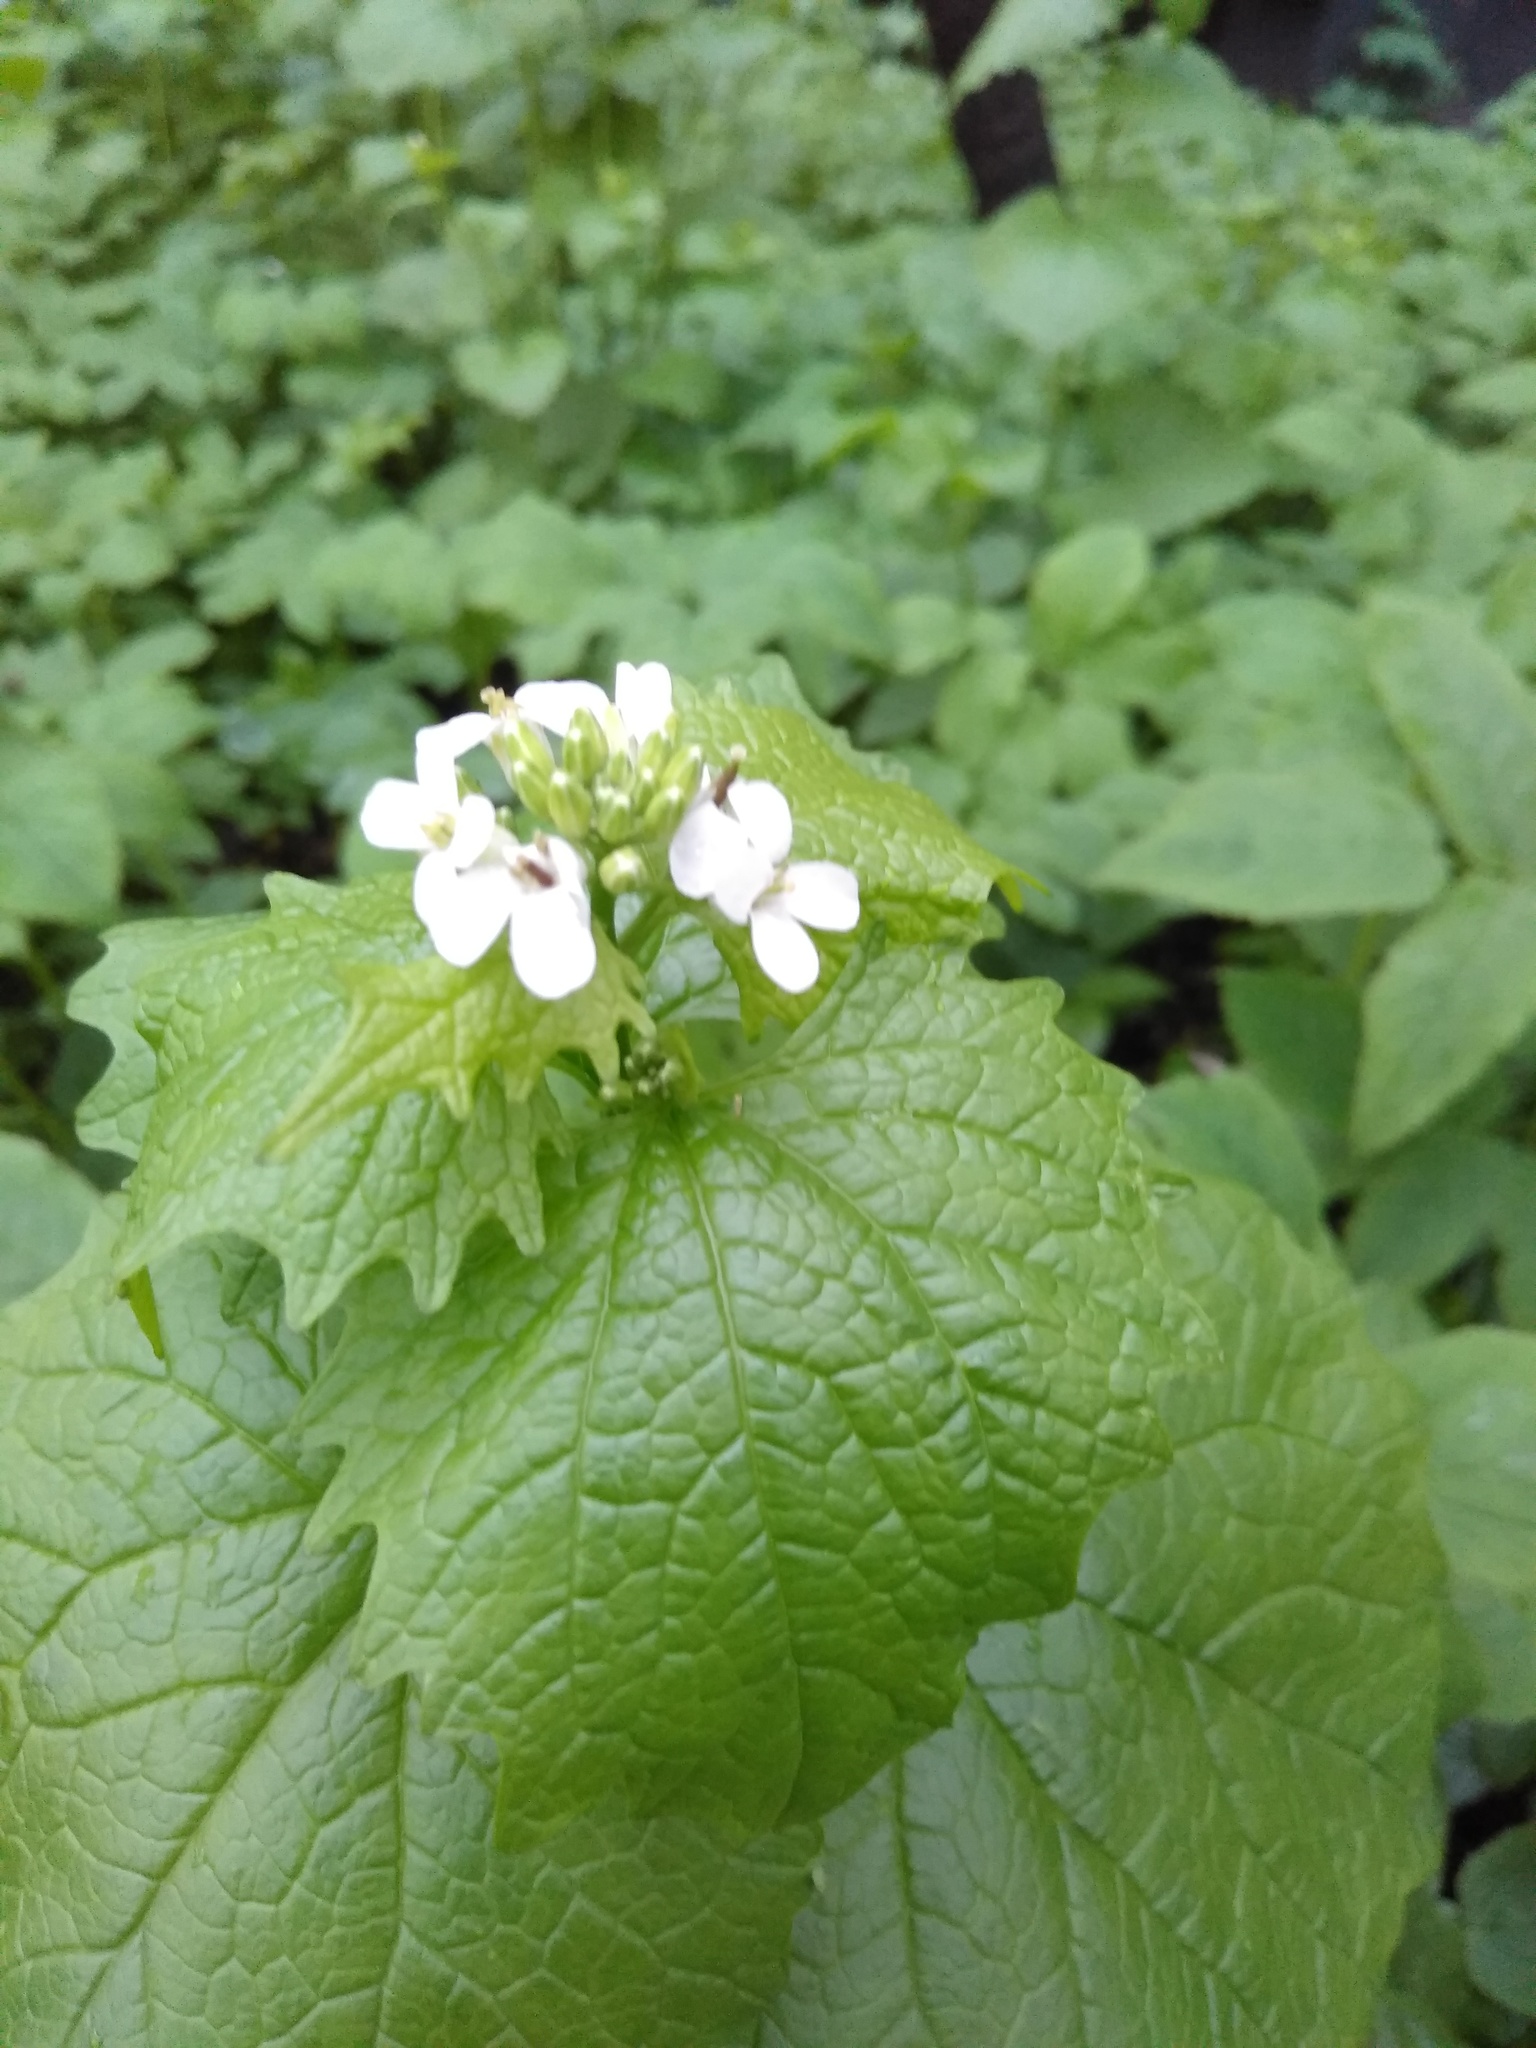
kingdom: Plantae
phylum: Tracheophyta
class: Magnoliopsida
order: Brassicales
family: Brassicaceae
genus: Alliaria
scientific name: Alliaria petiolata
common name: Garlic mustard
